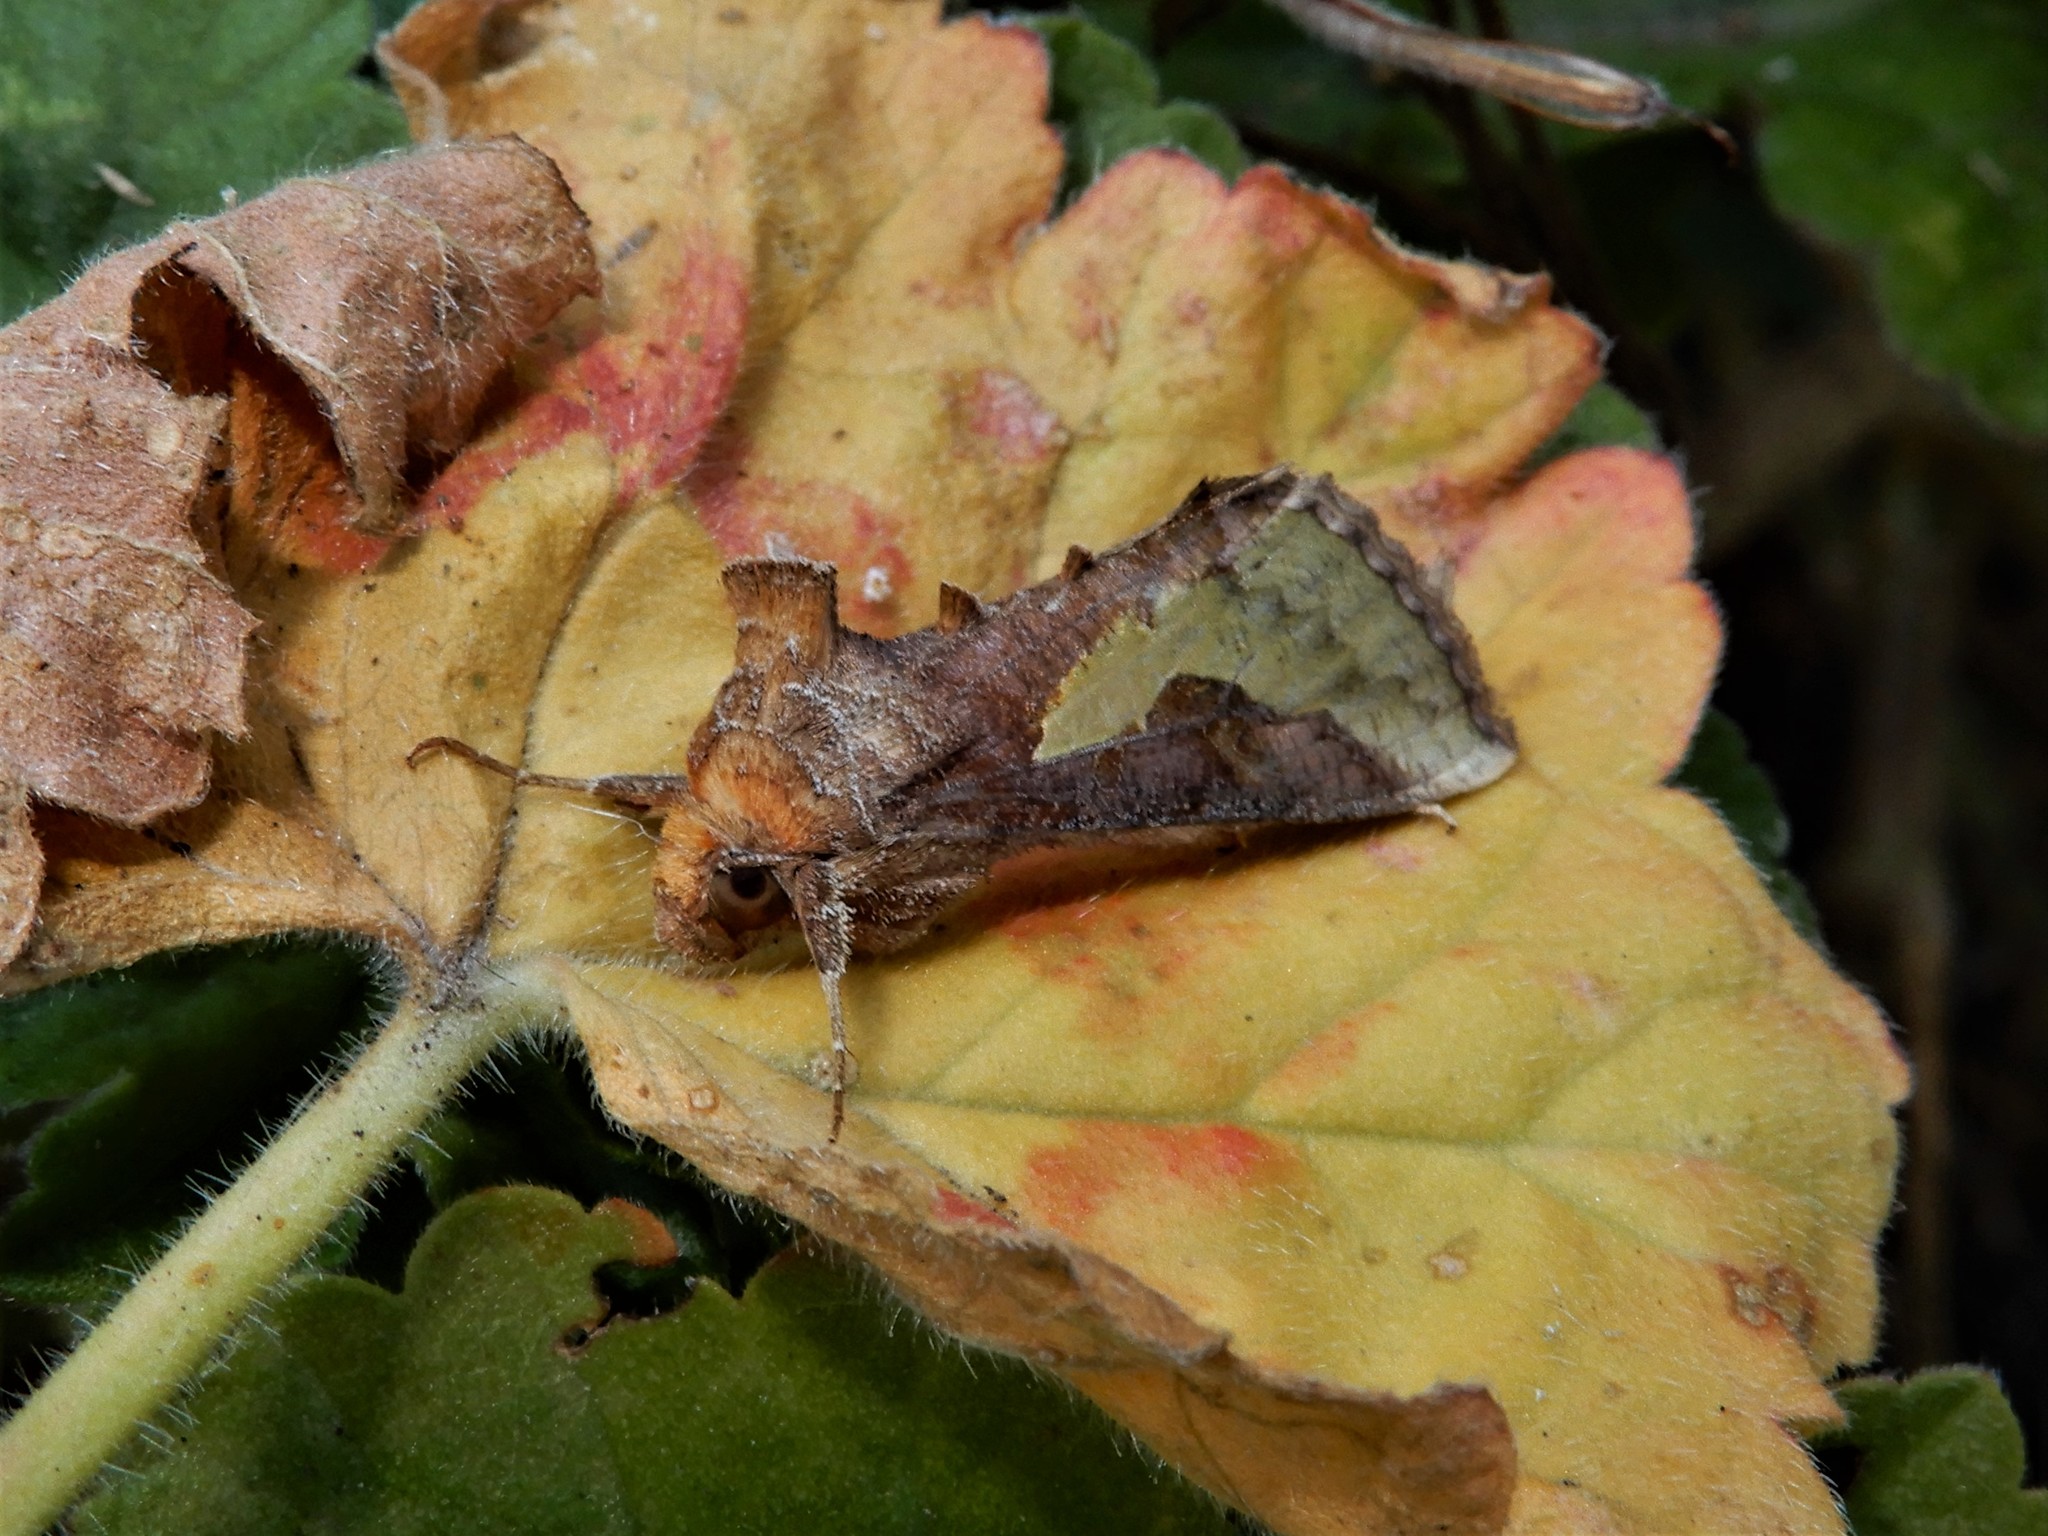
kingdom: Animalia
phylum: Arthropoda
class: Insecta
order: Lepidoptera
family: Noctuidae
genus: Thysanoplusia
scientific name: Thysanoplusia orichalcea
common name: Slender burnished brass, golden plusia
